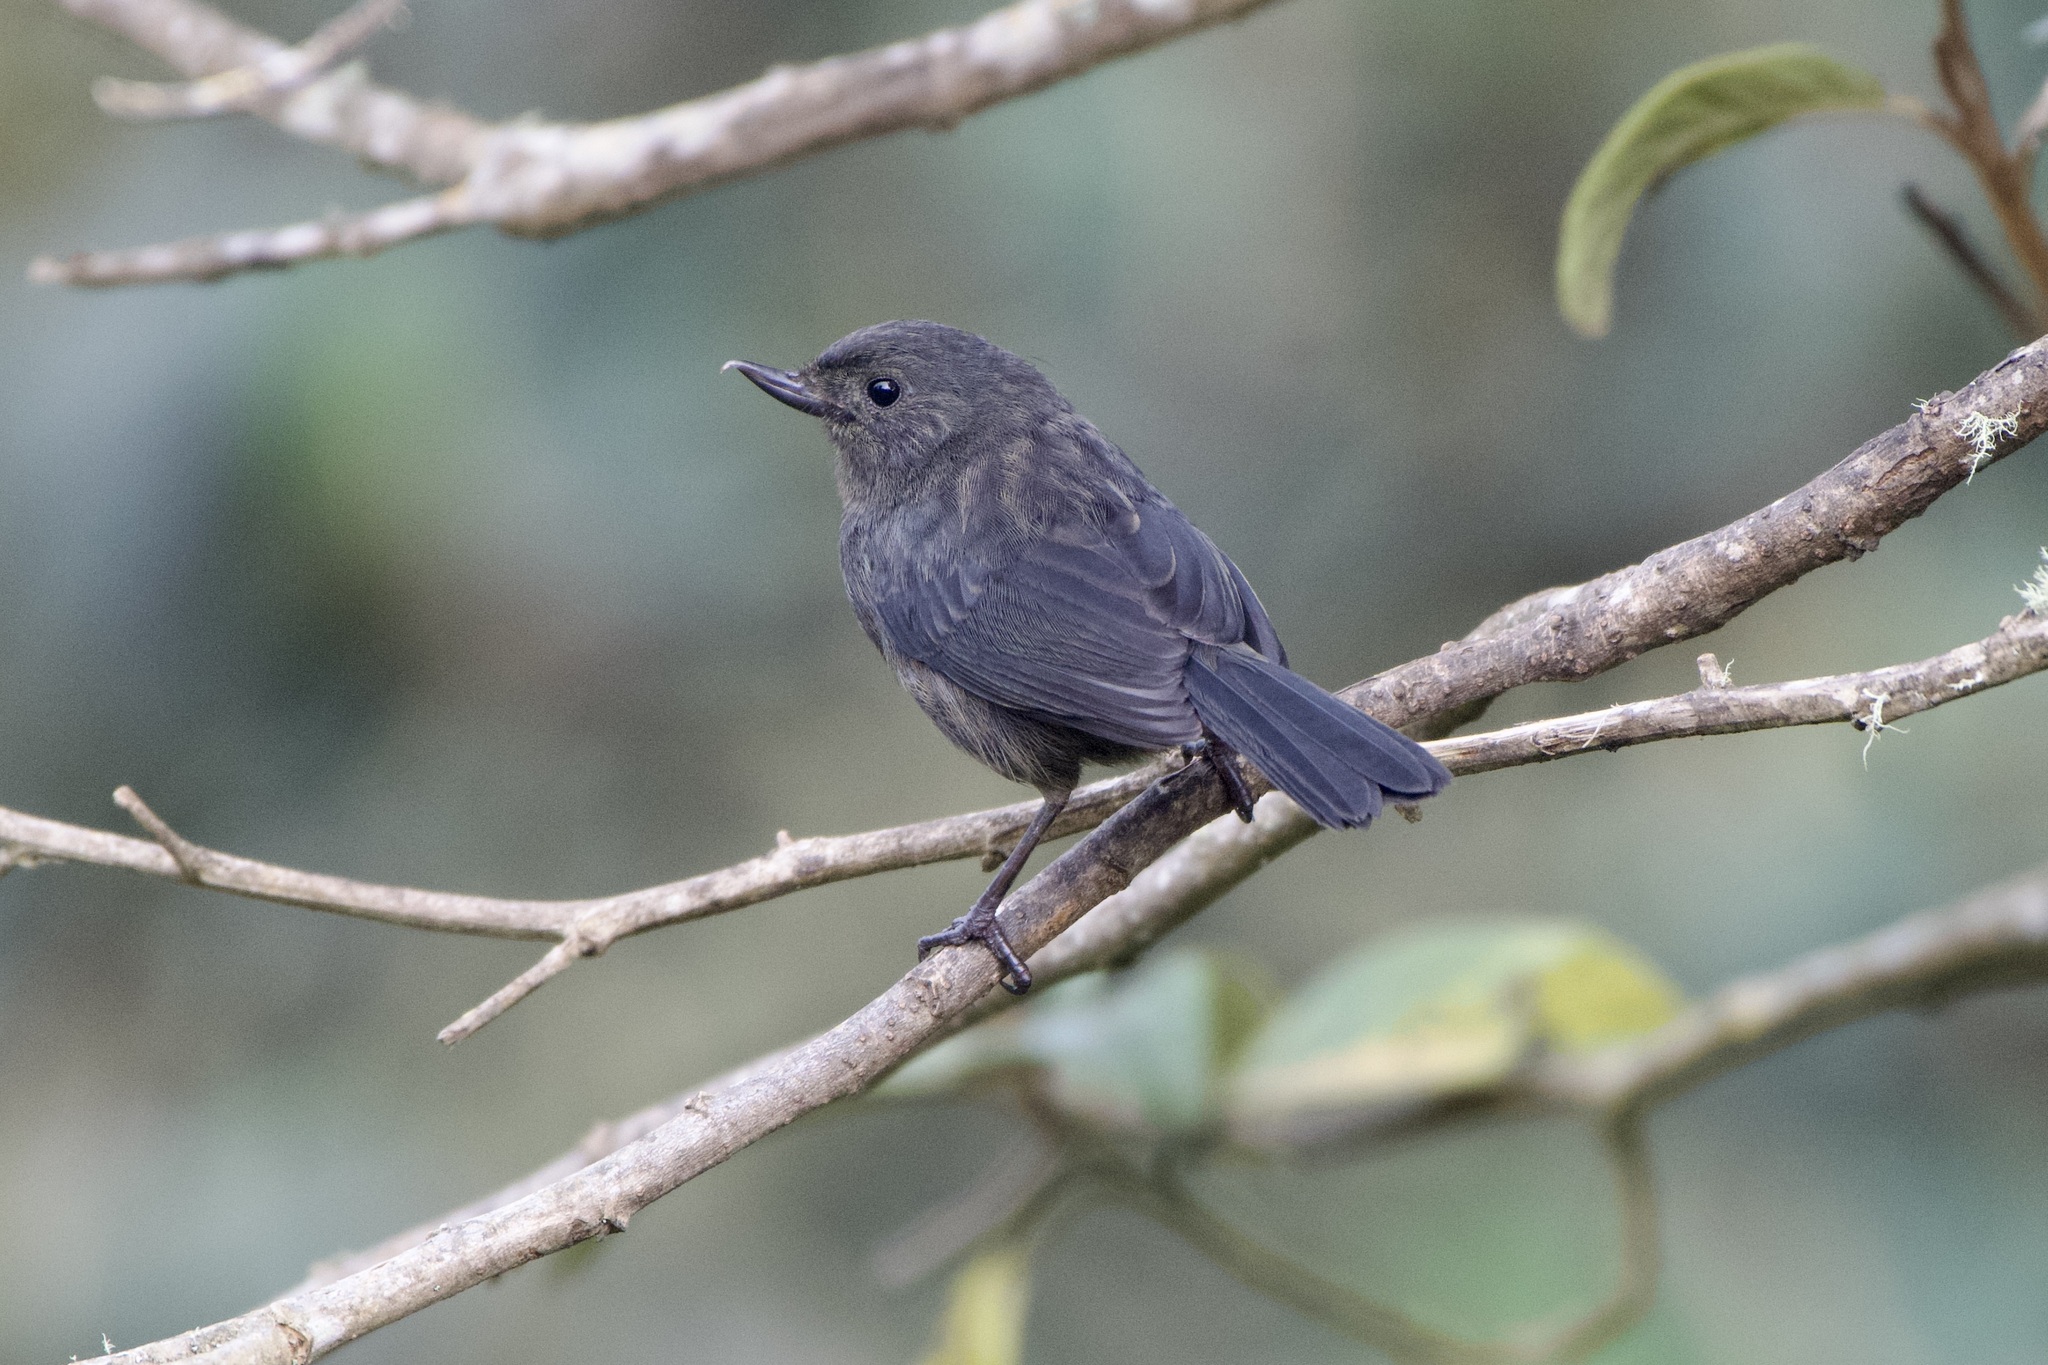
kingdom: Animalia
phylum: Chordata
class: Aves
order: Passeriformes
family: Thraupidae
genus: Diglossa
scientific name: Diglossa humeralis
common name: Black flowerpiercer
